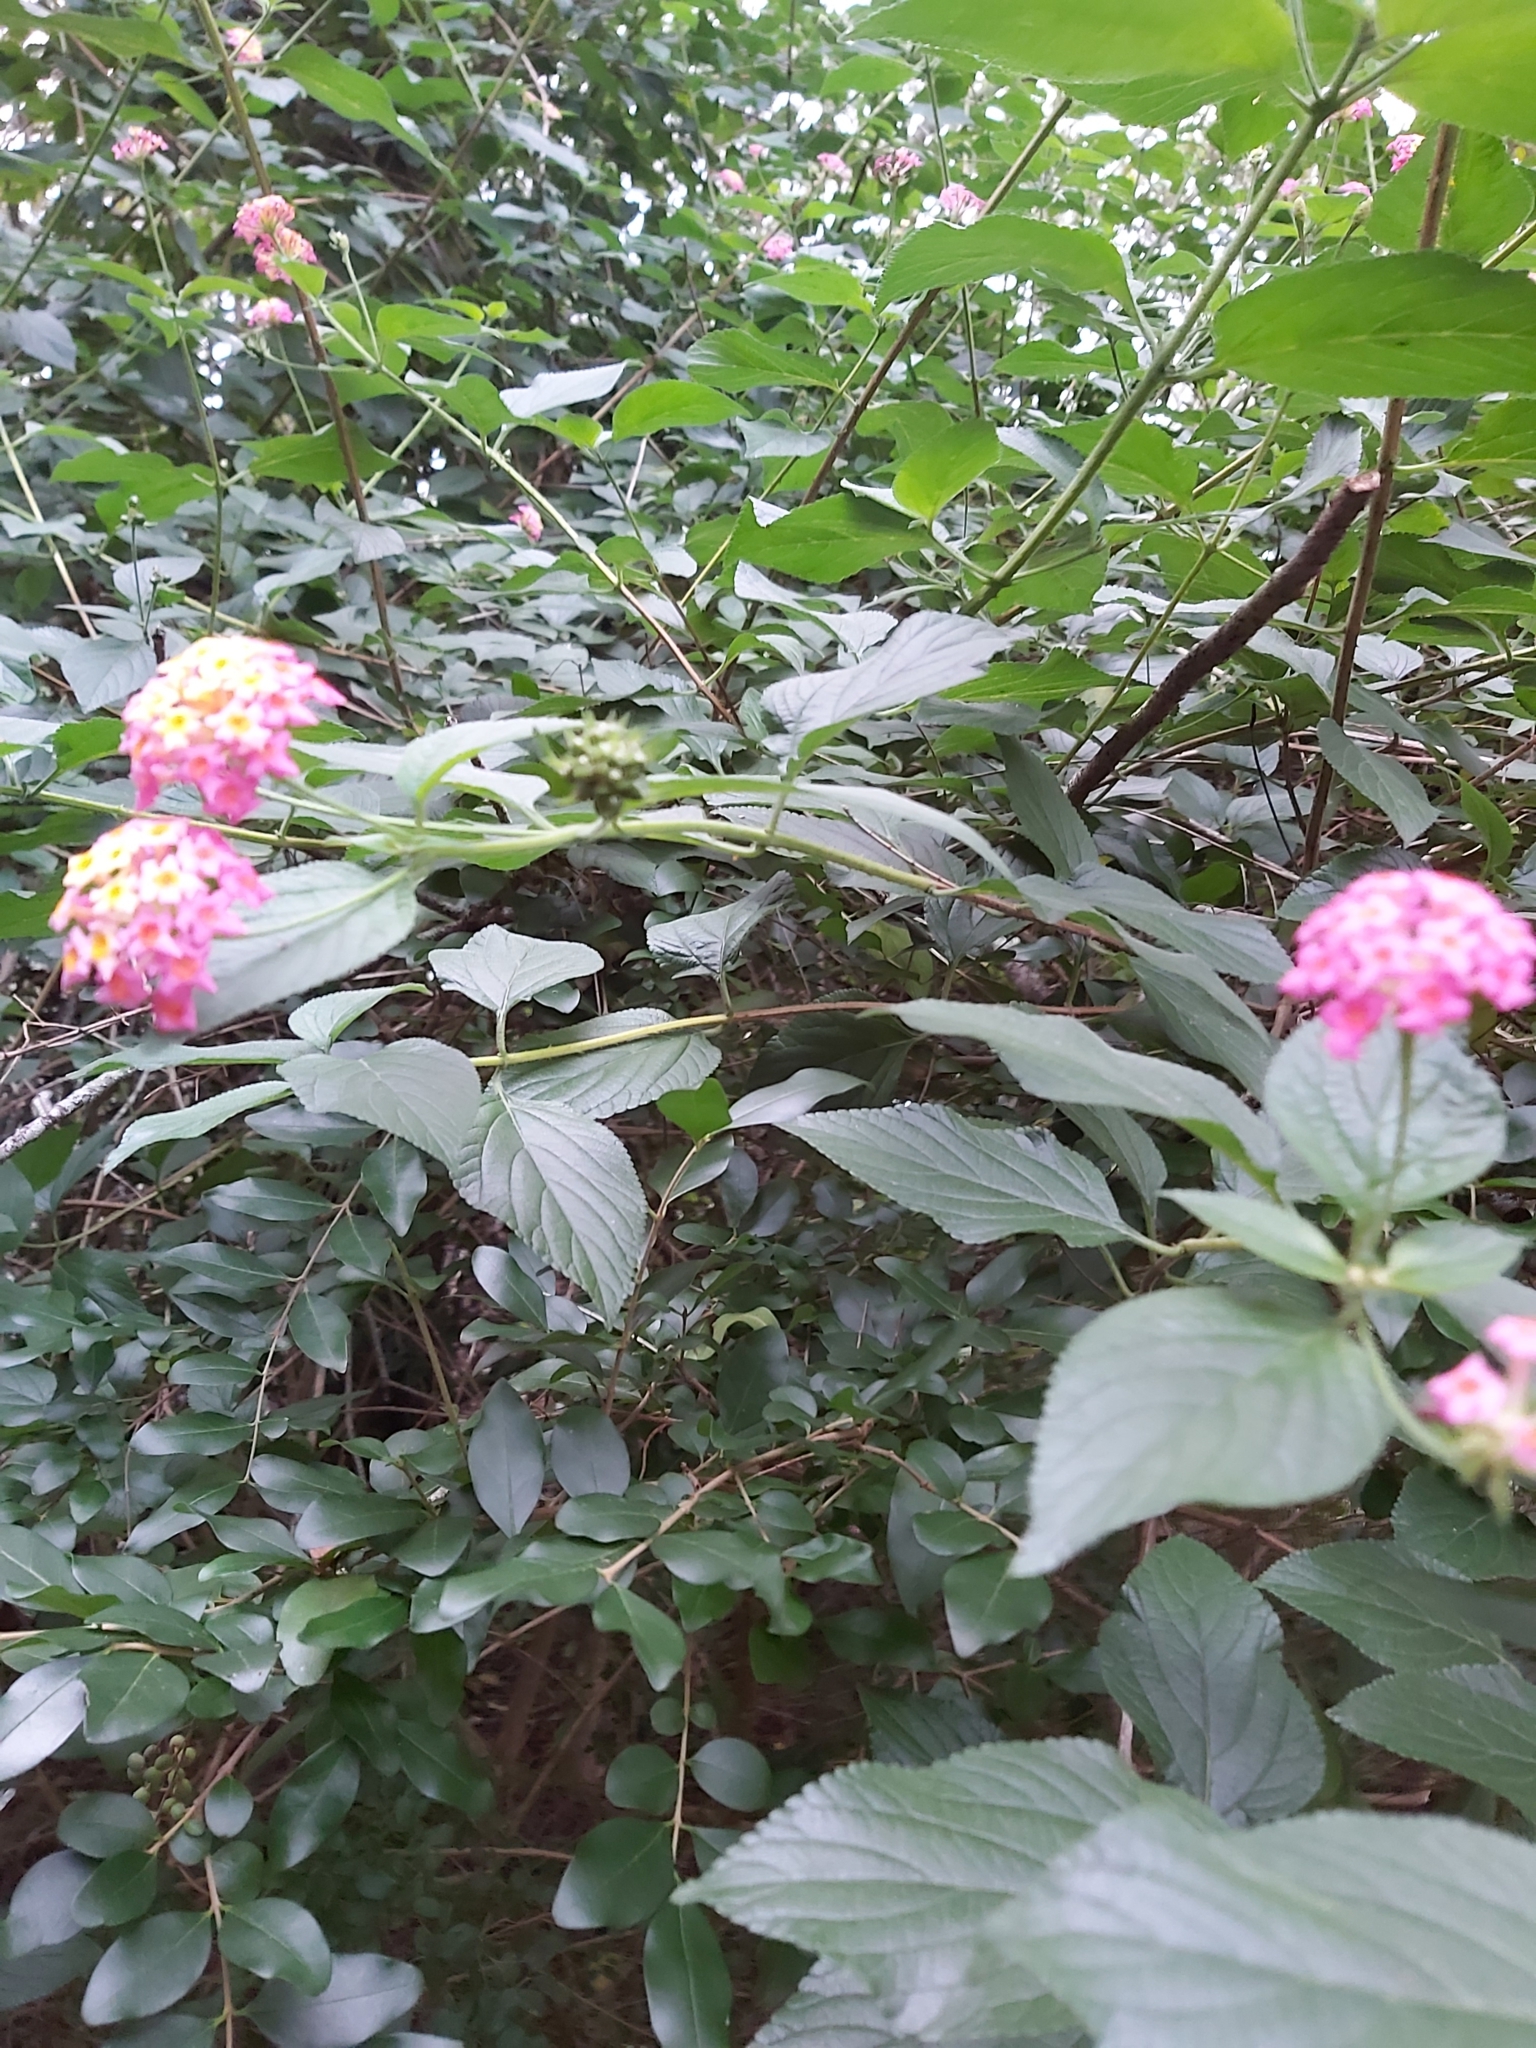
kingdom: Plantae
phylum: Tracheophyta
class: Magnoliopsida
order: Lamiales
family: Verbenaceae
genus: Lantana
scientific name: Lantana camara
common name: Lantana
